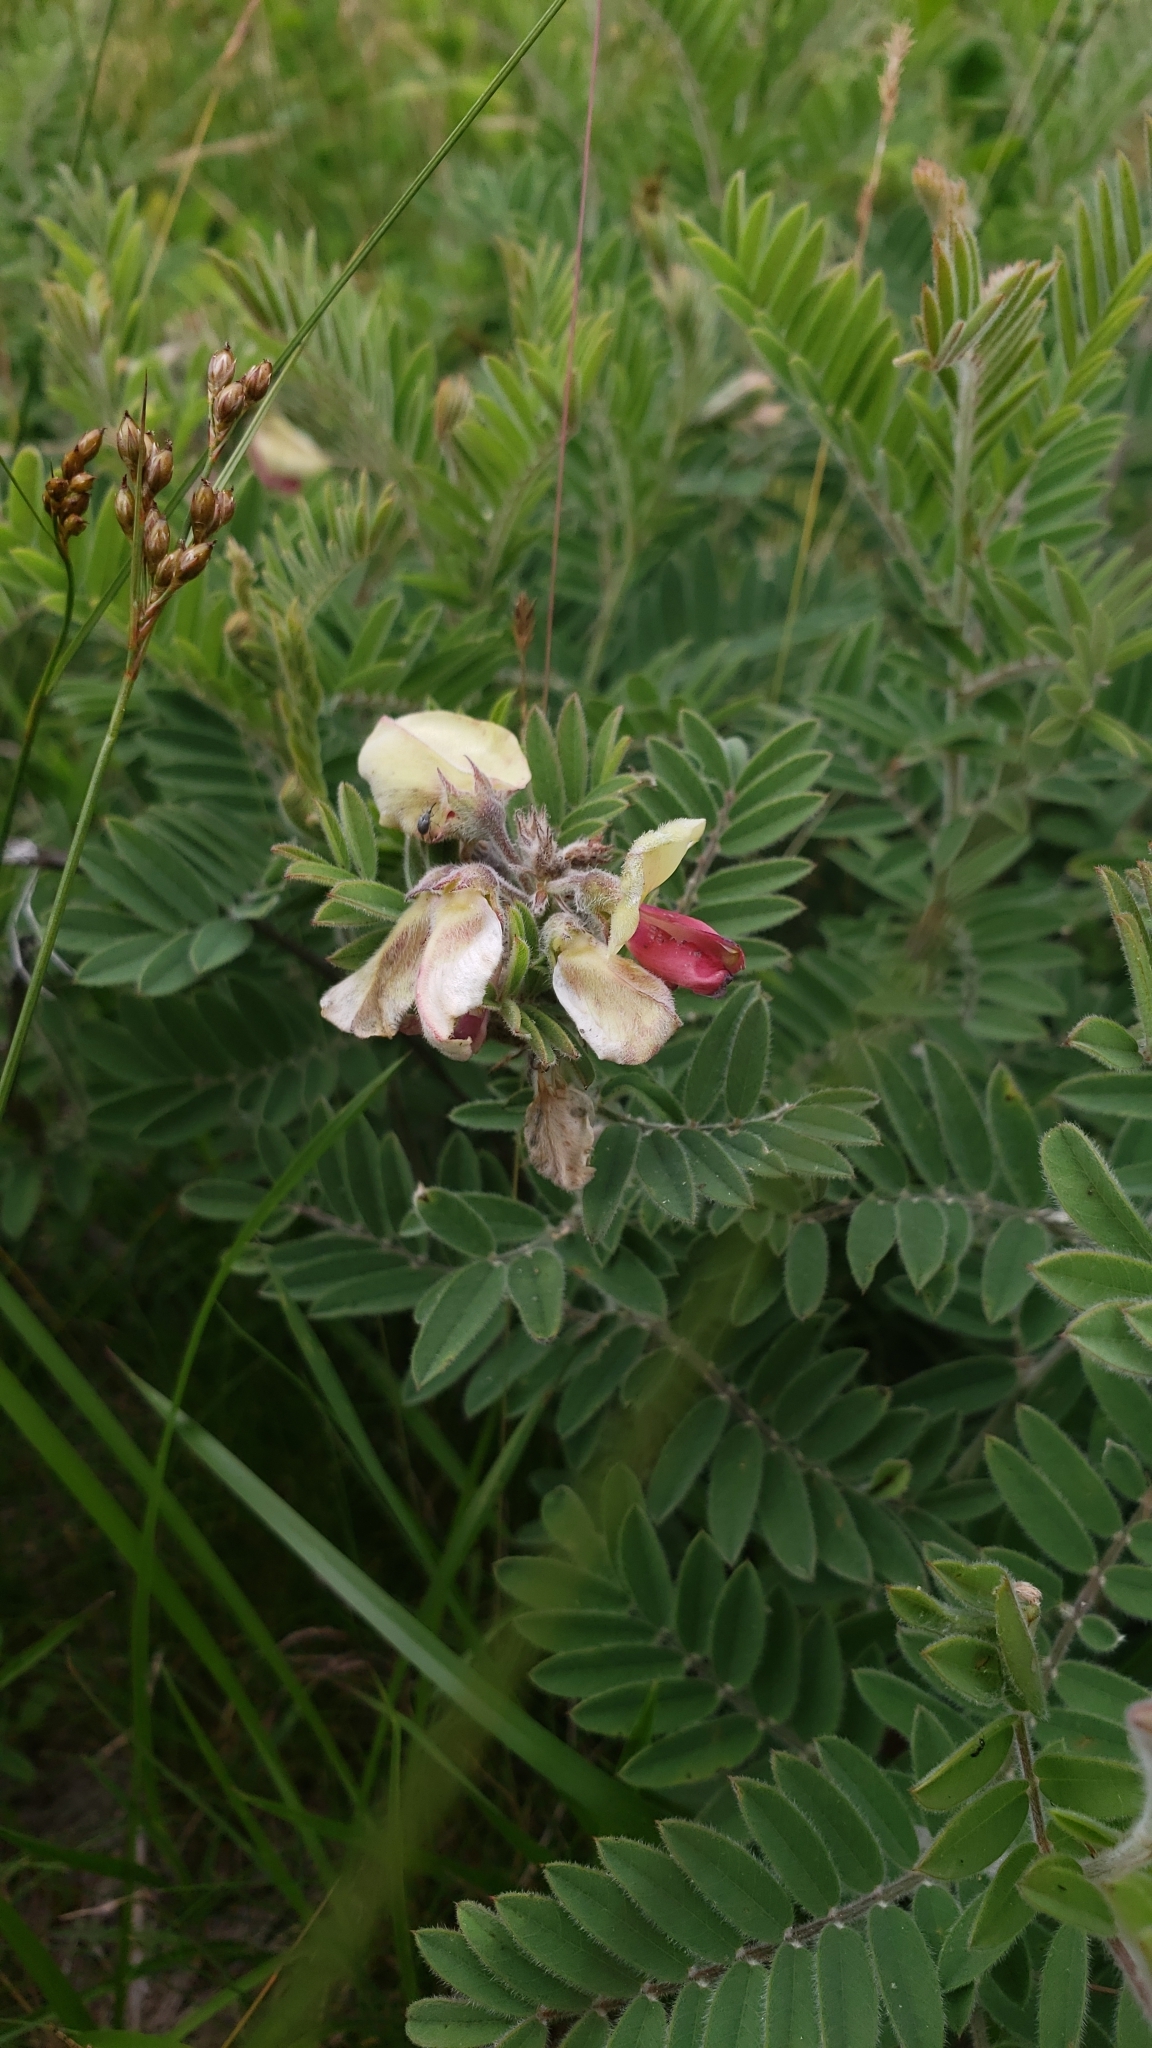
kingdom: Plantae
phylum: Tracheophyta
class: Magnoliopsida
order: Fabales
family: Fabaceae
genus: Tephrosia
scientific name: Tephrosia virginiana
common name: Rabbit-pea
